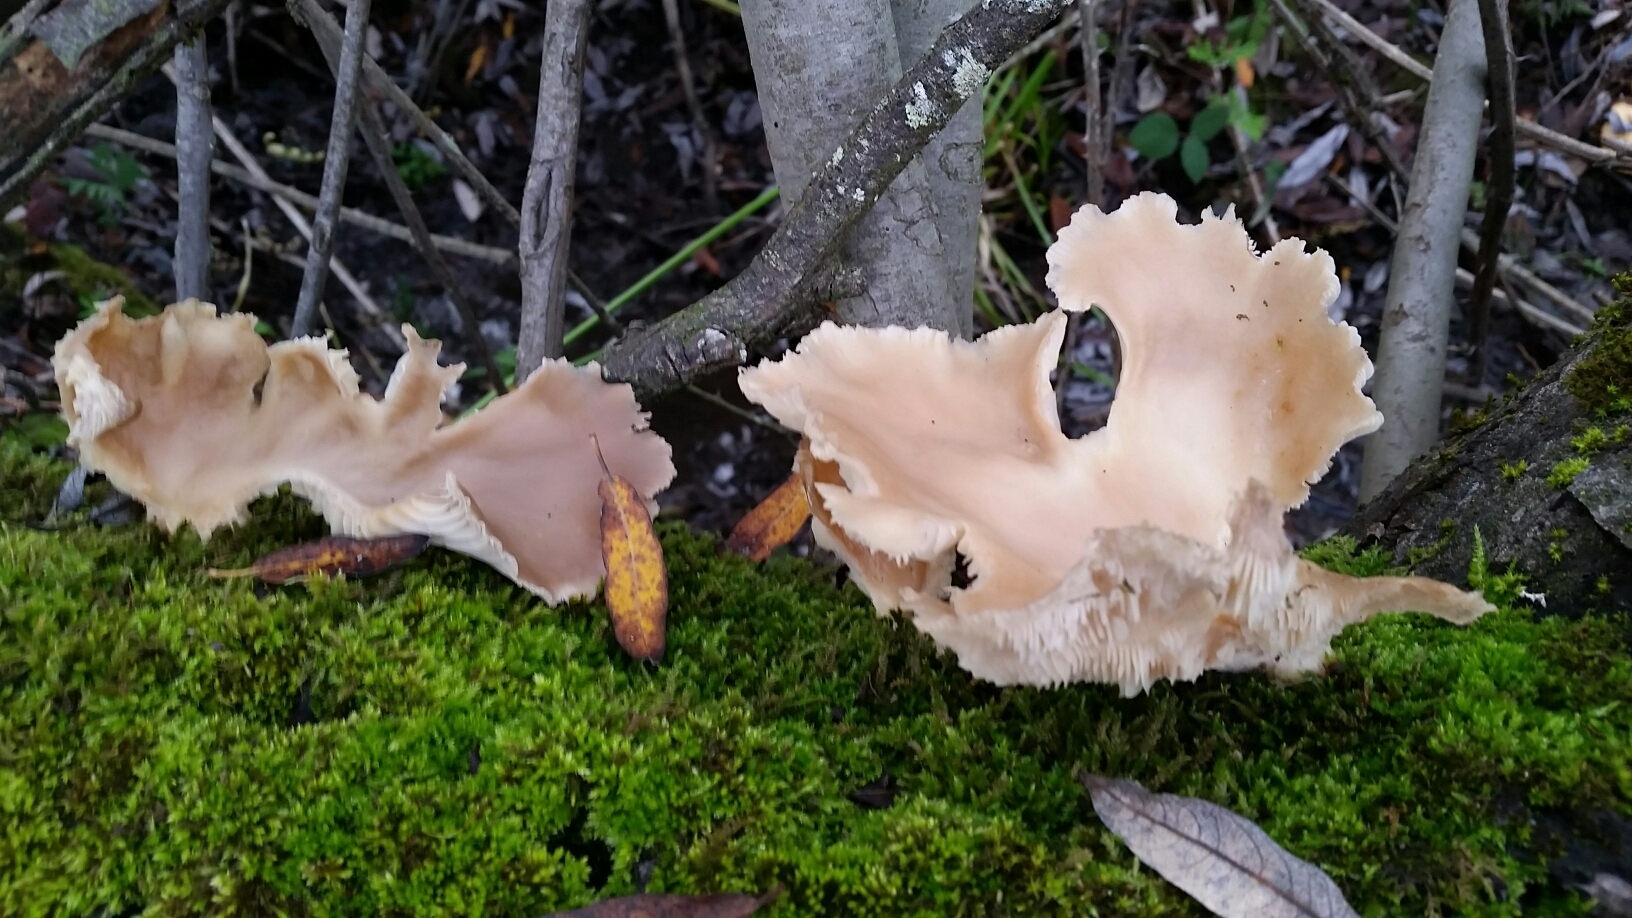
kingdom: Fungi
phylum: Basidiomycota
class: Agaricomycetes
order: Agaricales
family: Pleurotaceae
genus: Pleurotus
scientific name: Pleurotus ostreatus
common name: Oyster mushroom
